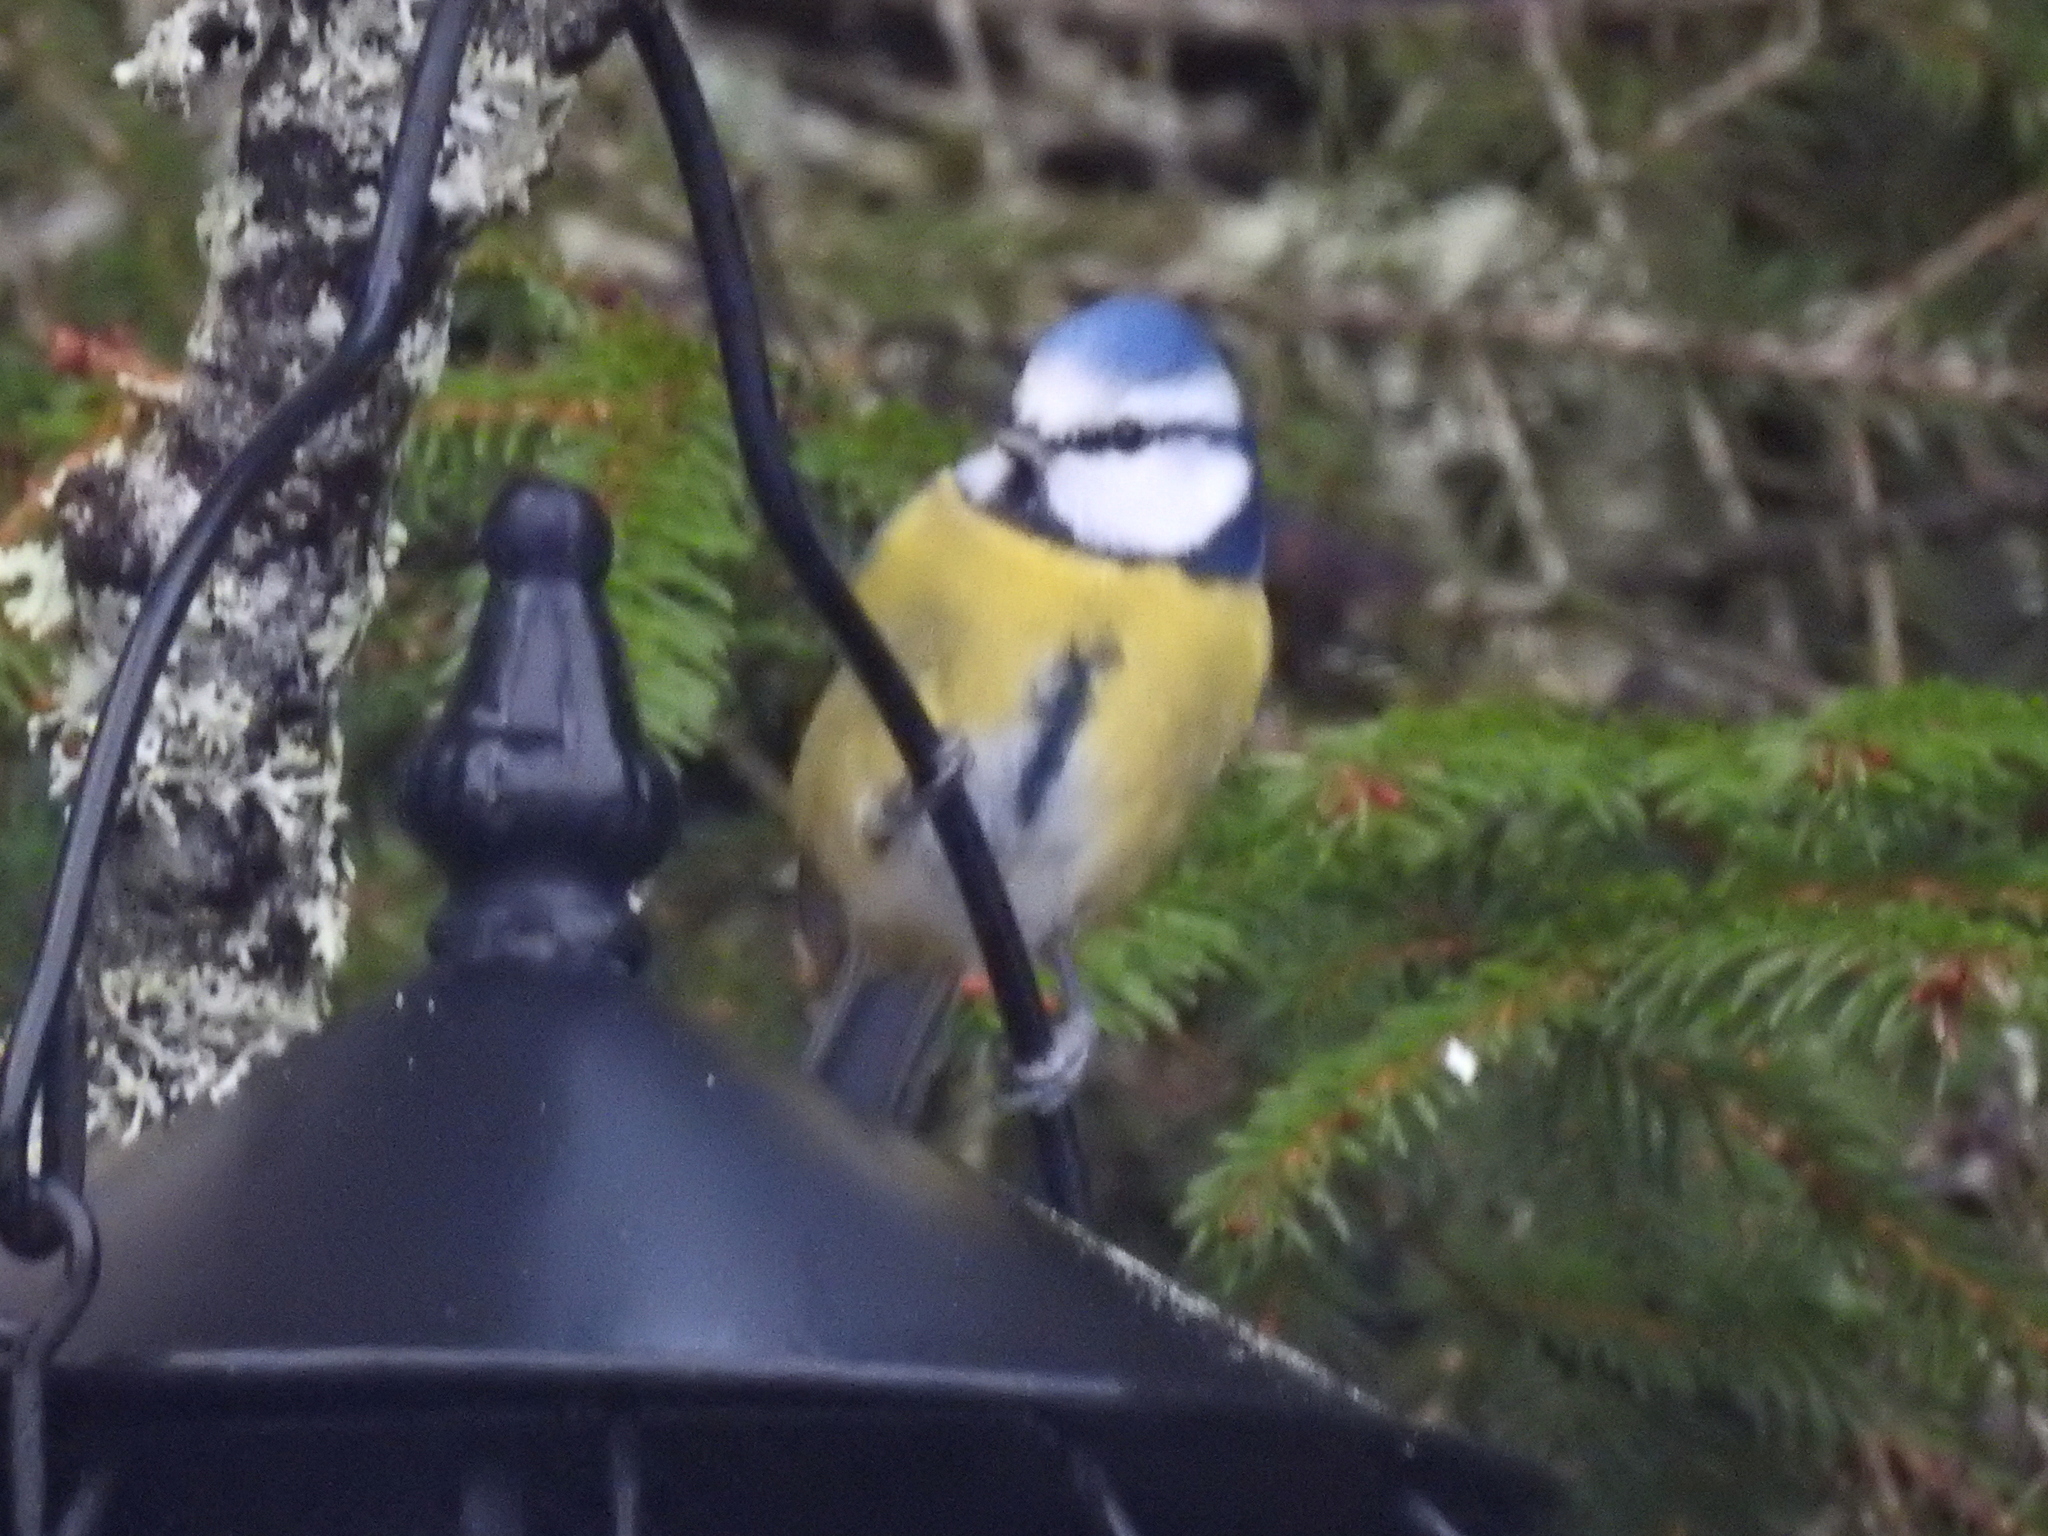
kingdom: Animalia
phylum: Chordata
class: Aves
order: Passeriformes
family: Paridae
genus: Cyanistes
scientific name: Cyanistes caeruleus
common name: Eurasian blue tit
